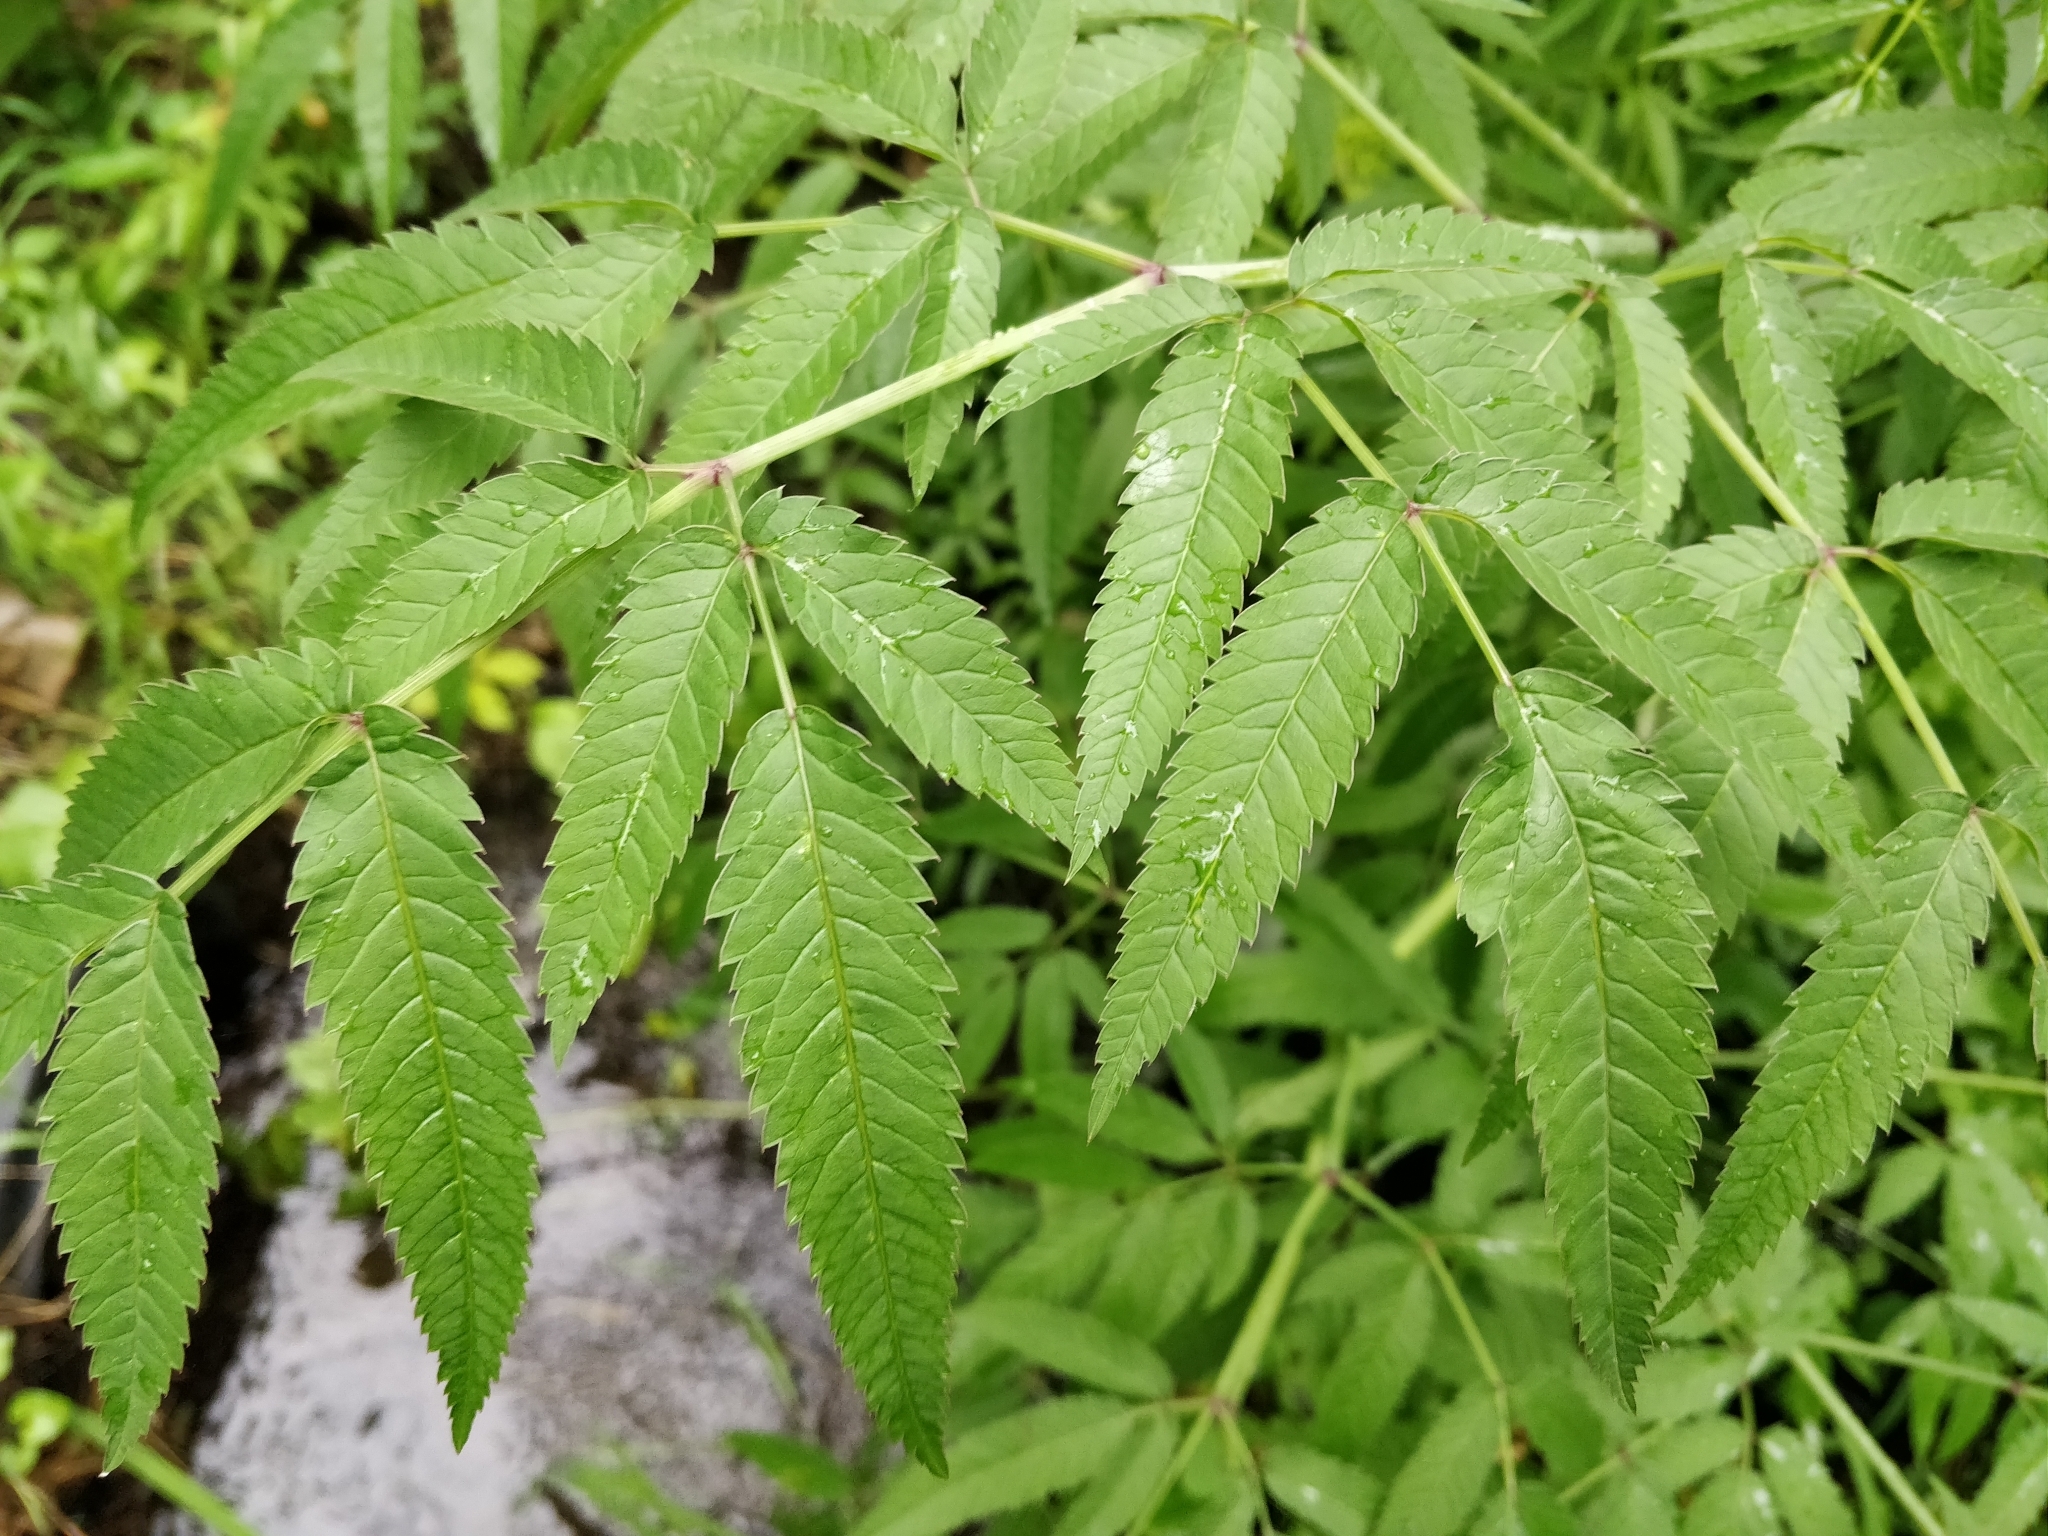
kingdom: Plantae
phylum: Tracheophyta
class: Magnoliopsida
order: Apiales
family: Apiaceae
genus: Cicuta
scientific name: Cicuta maculata
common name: Spotted cowbane
